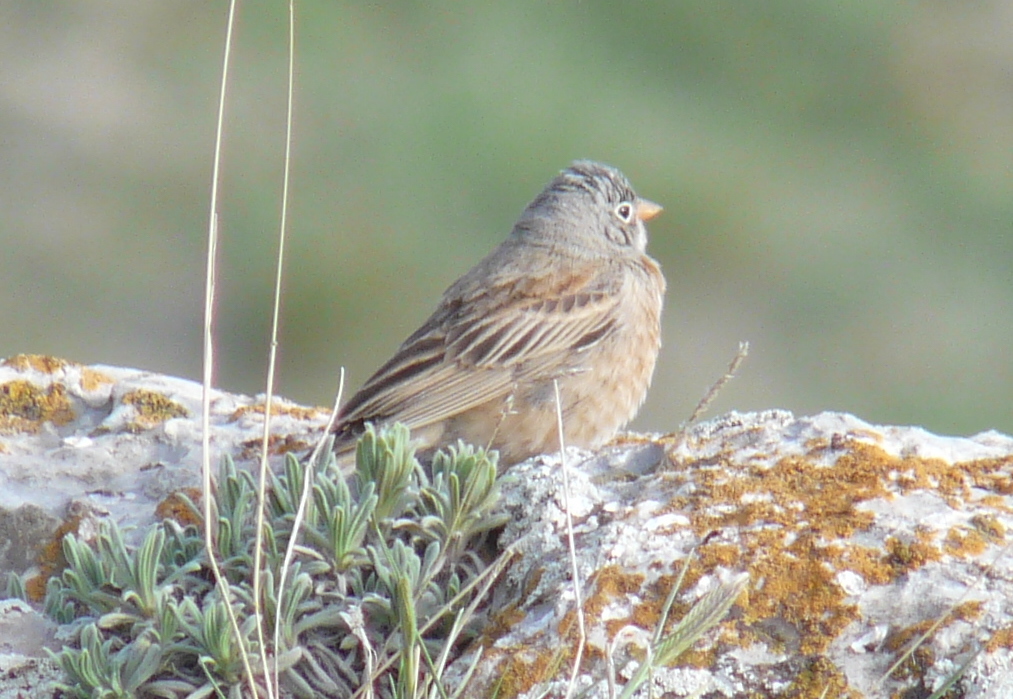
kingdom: Animalia
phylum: Chordata
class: Aves
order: Passeriformes
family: Emberizidae
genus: Emberiza
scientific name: Emberiza buchanani
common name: Grey-necked bunting
